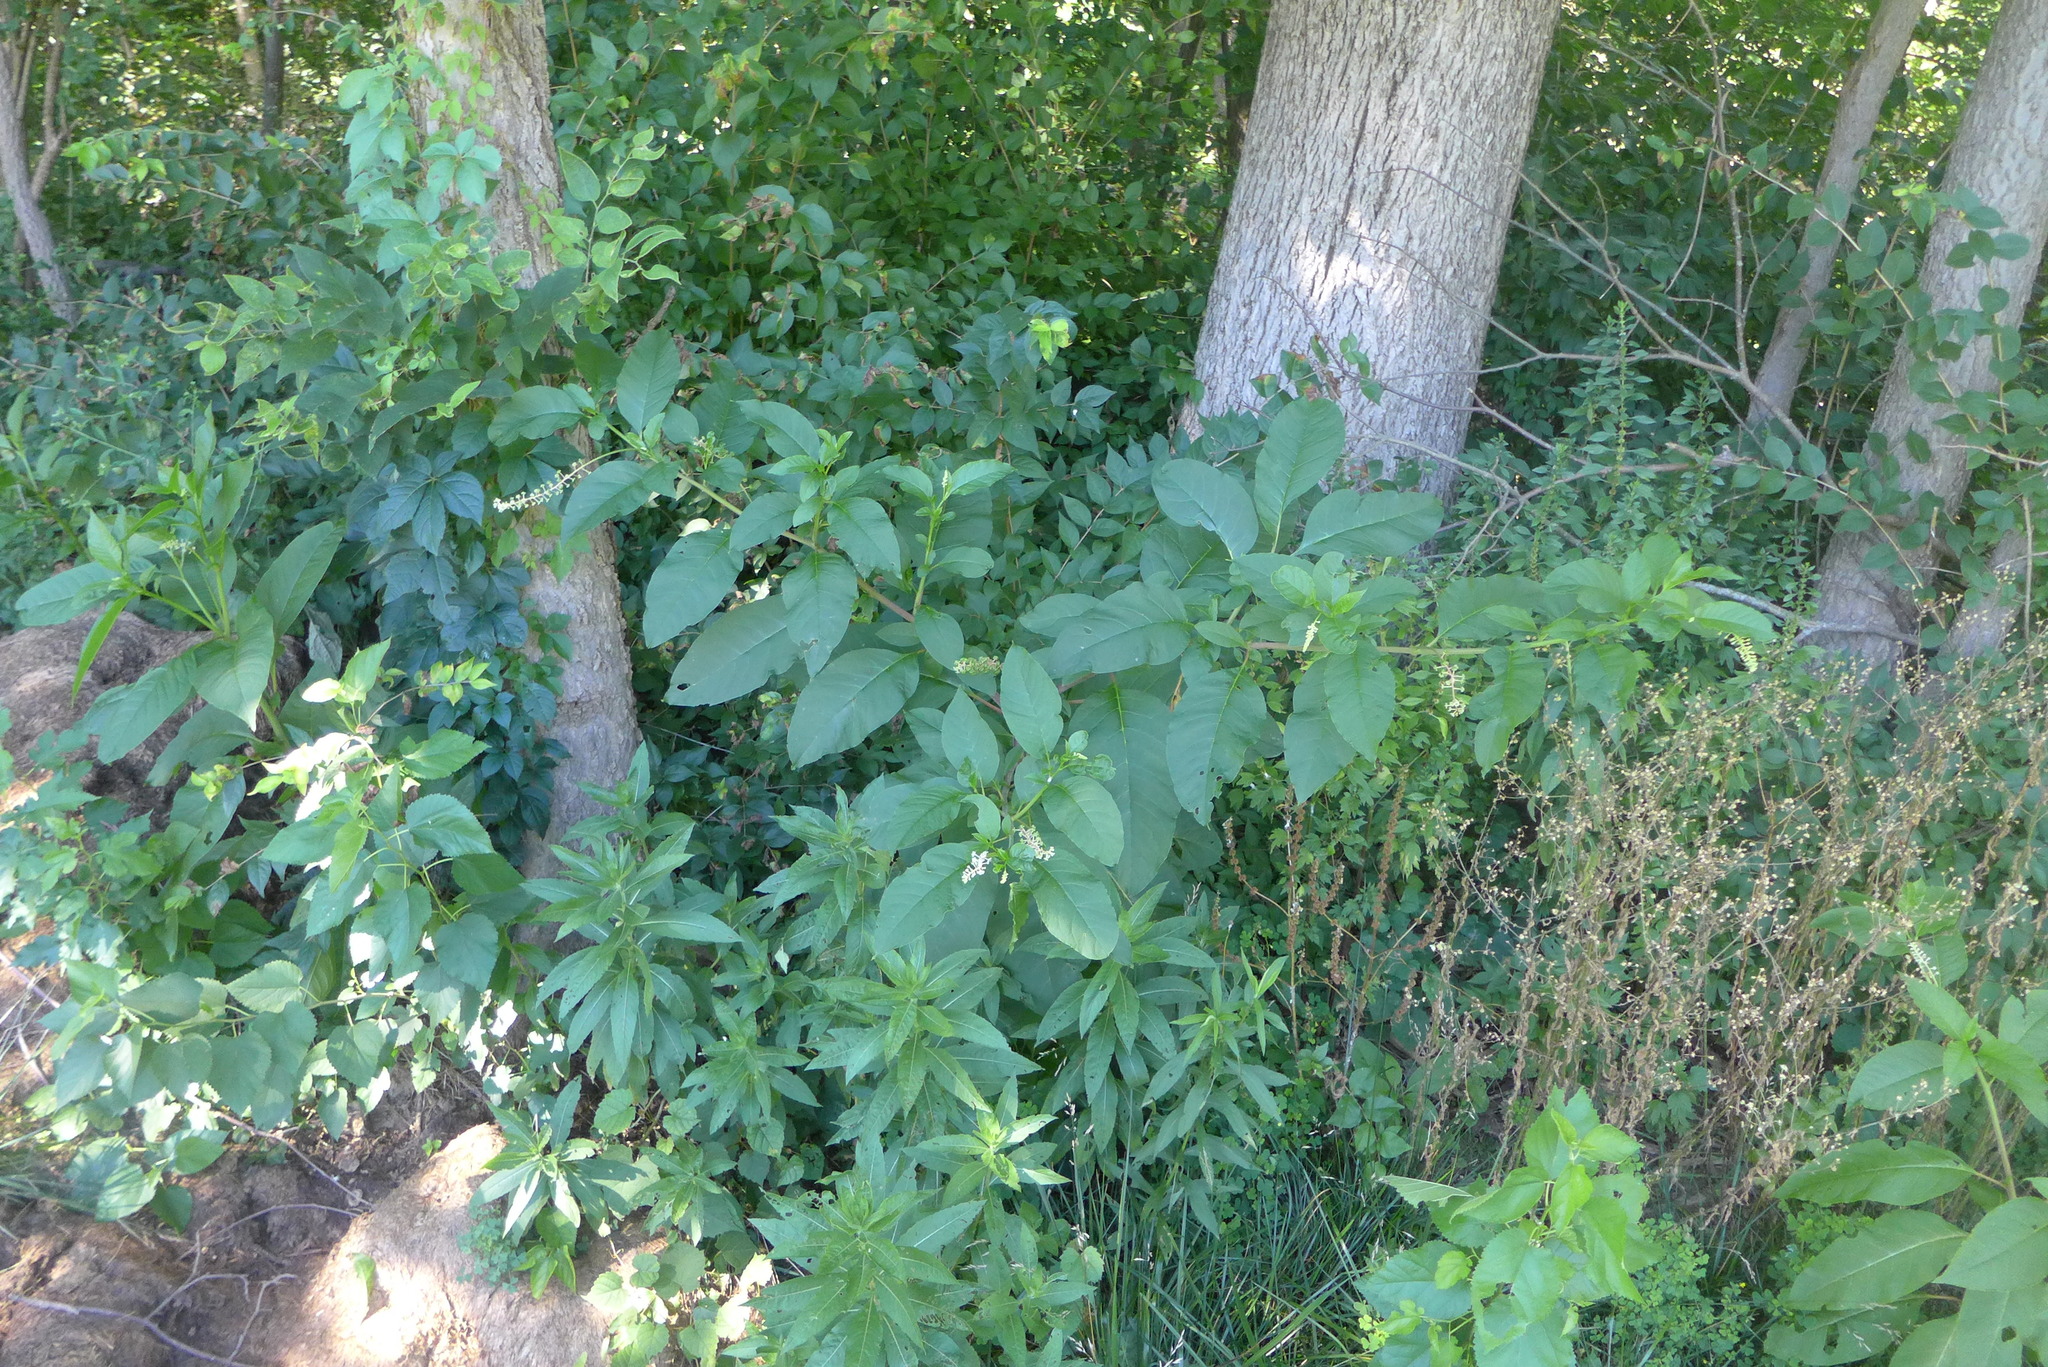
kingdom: Plantae
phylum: Tracheophyta
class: Magnoliopsida
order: Caryophyllales
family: Phytolaccaceae
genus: Phytolacca
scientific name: Phytolacca americana
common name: American pokeweed
